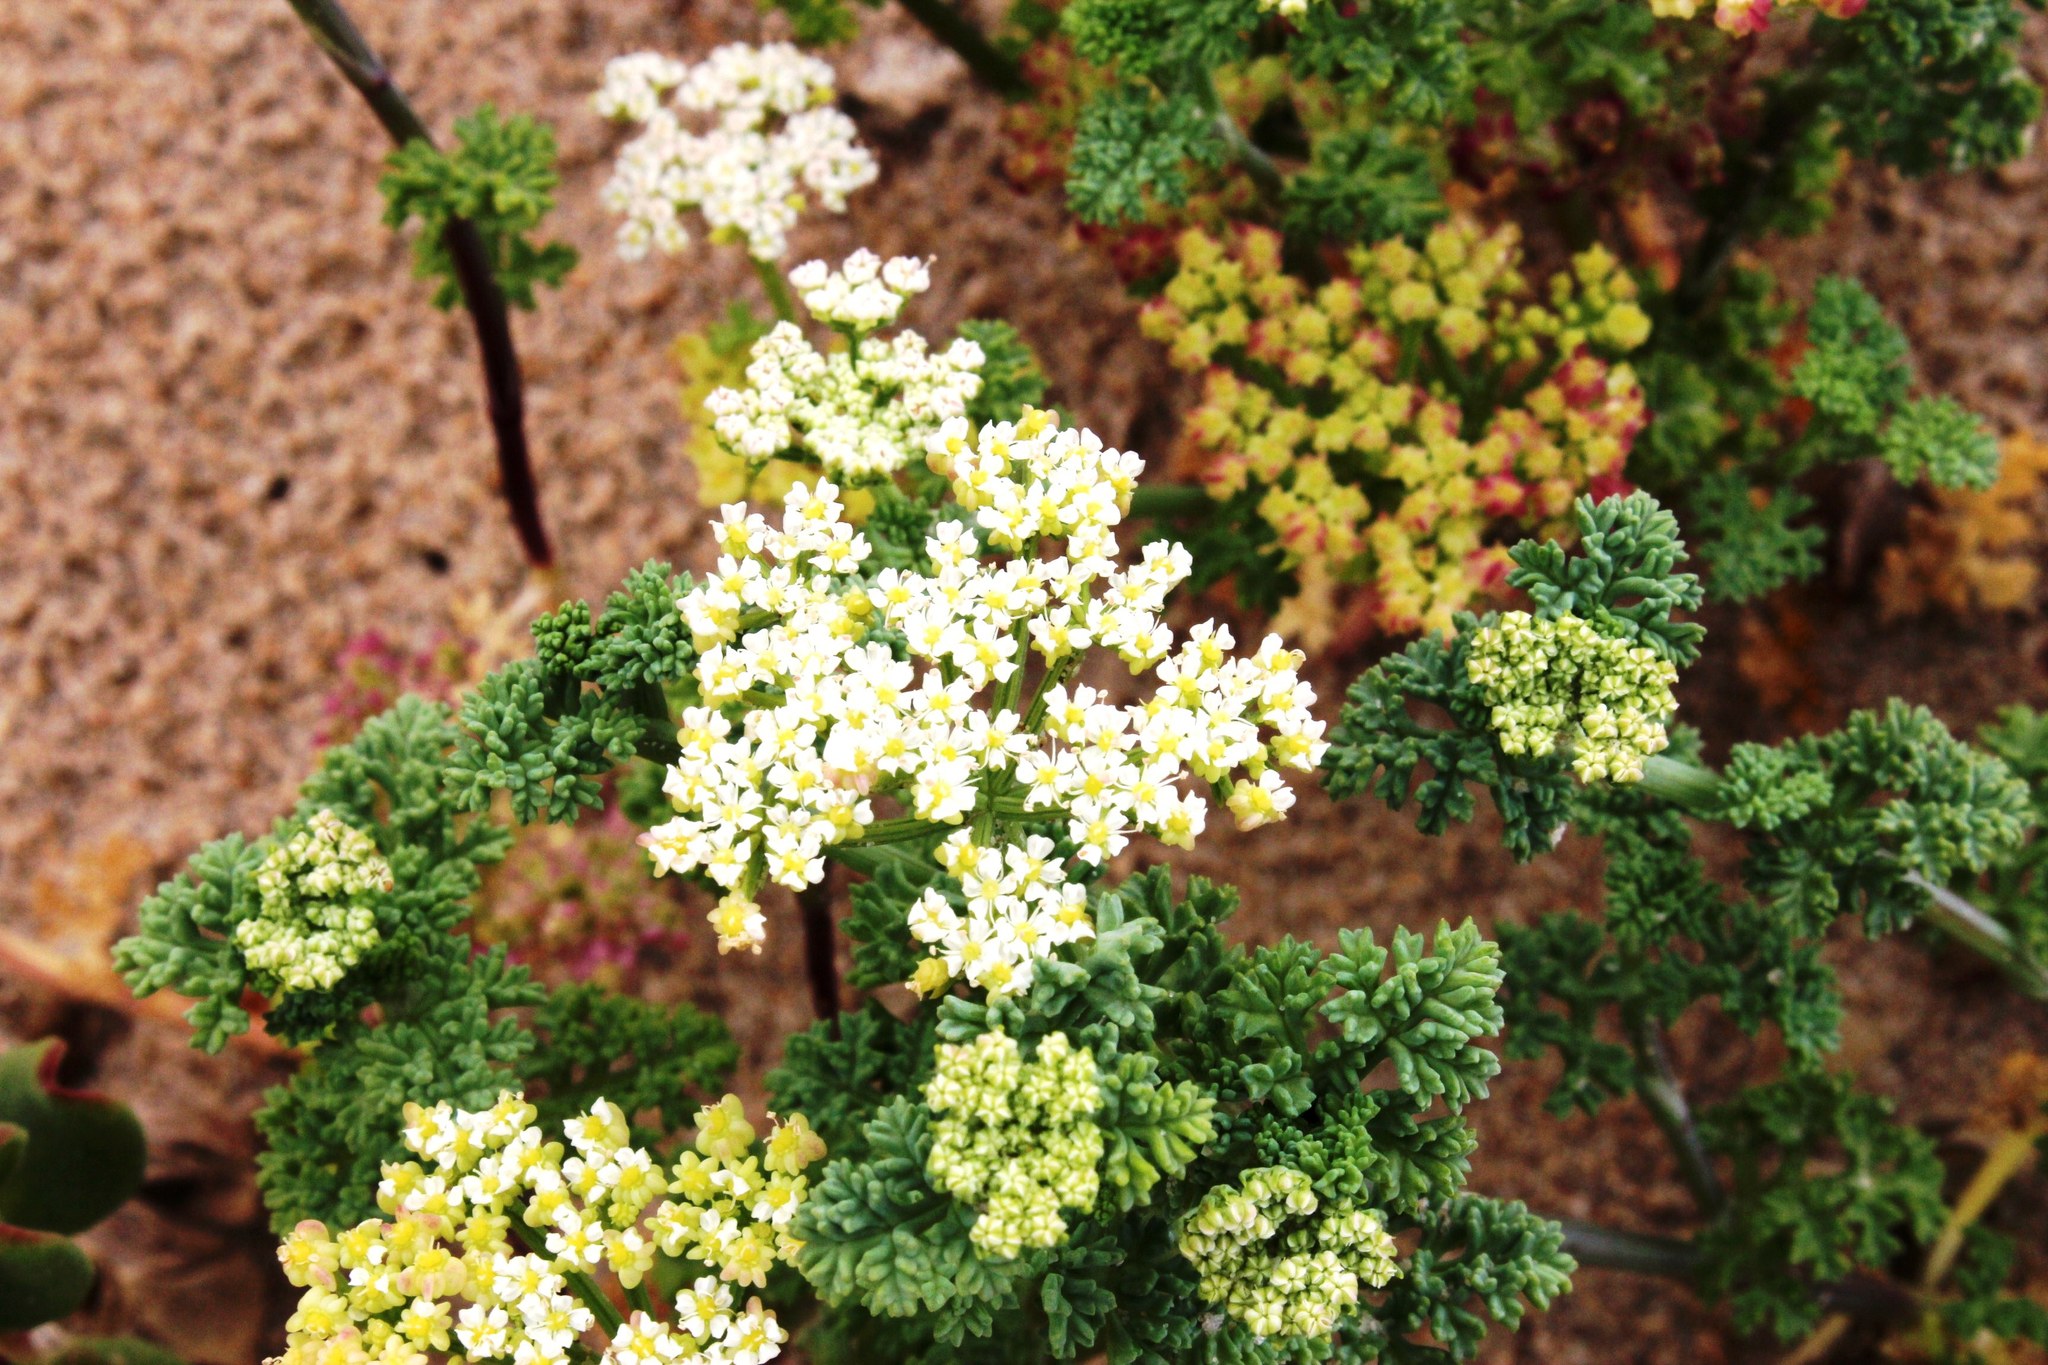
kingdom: Plantae
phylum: Tracheophyta
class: Magnoliopsida
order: Apiales
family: Apiaceae
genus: Dasispermum
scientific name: Dasispermum suffruticosum
